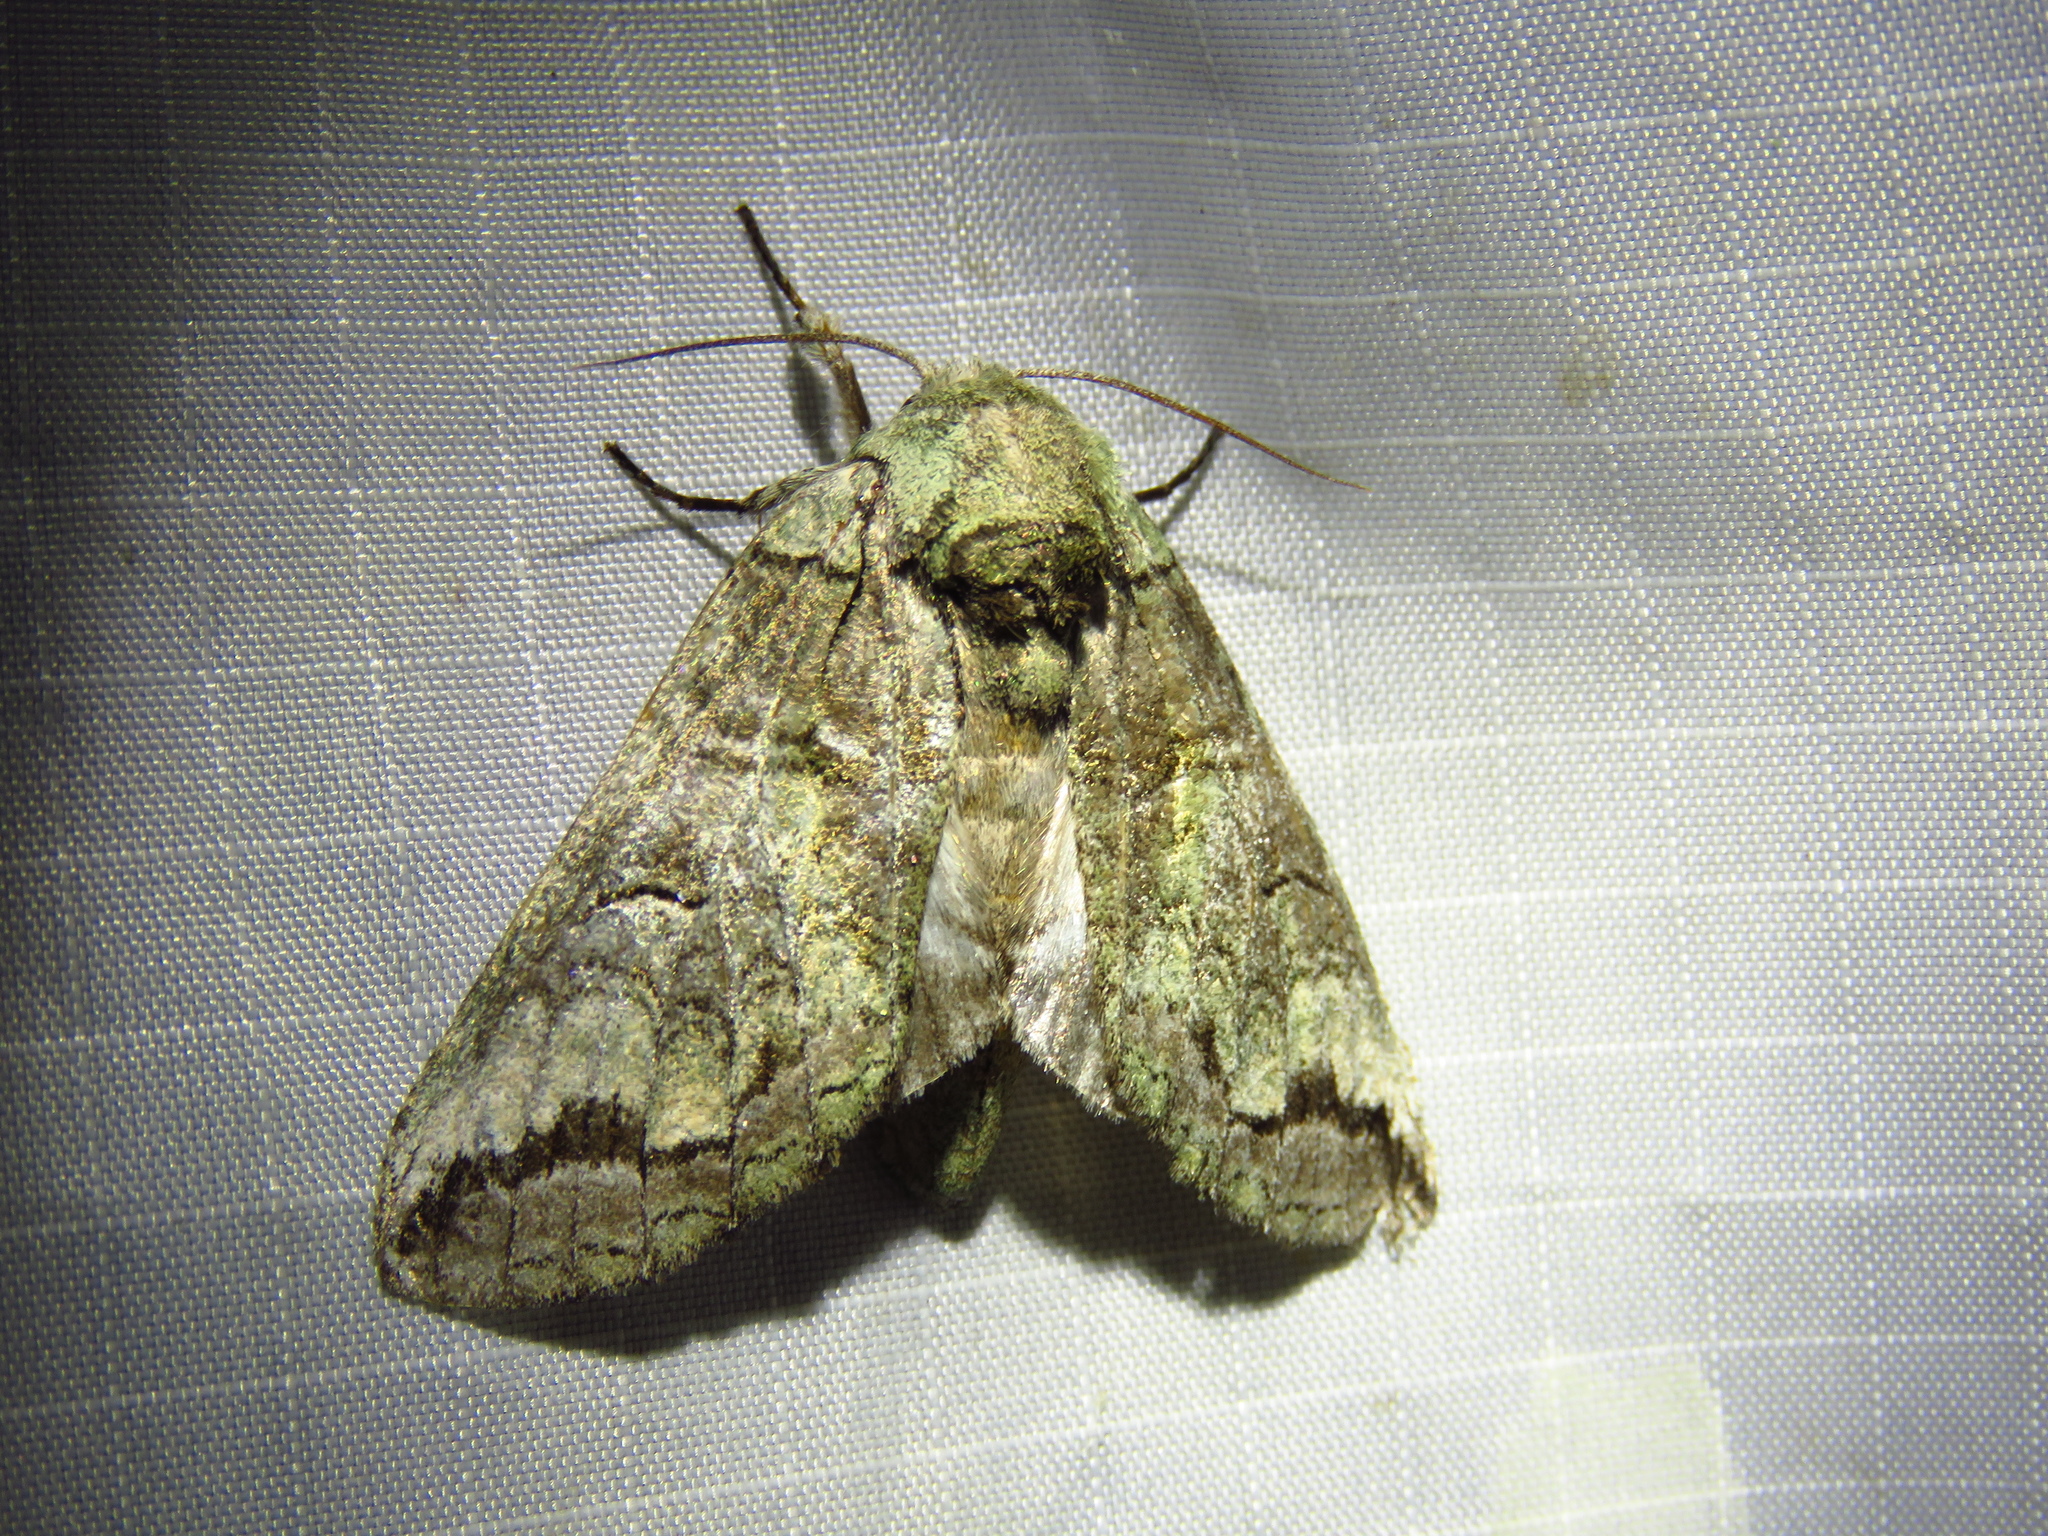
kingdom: Animalia
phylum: Arthropoda
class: Insecta
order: Lepidoptera
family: Notodontidae
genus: Heterocampa
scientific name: Heterocampa astartoides
